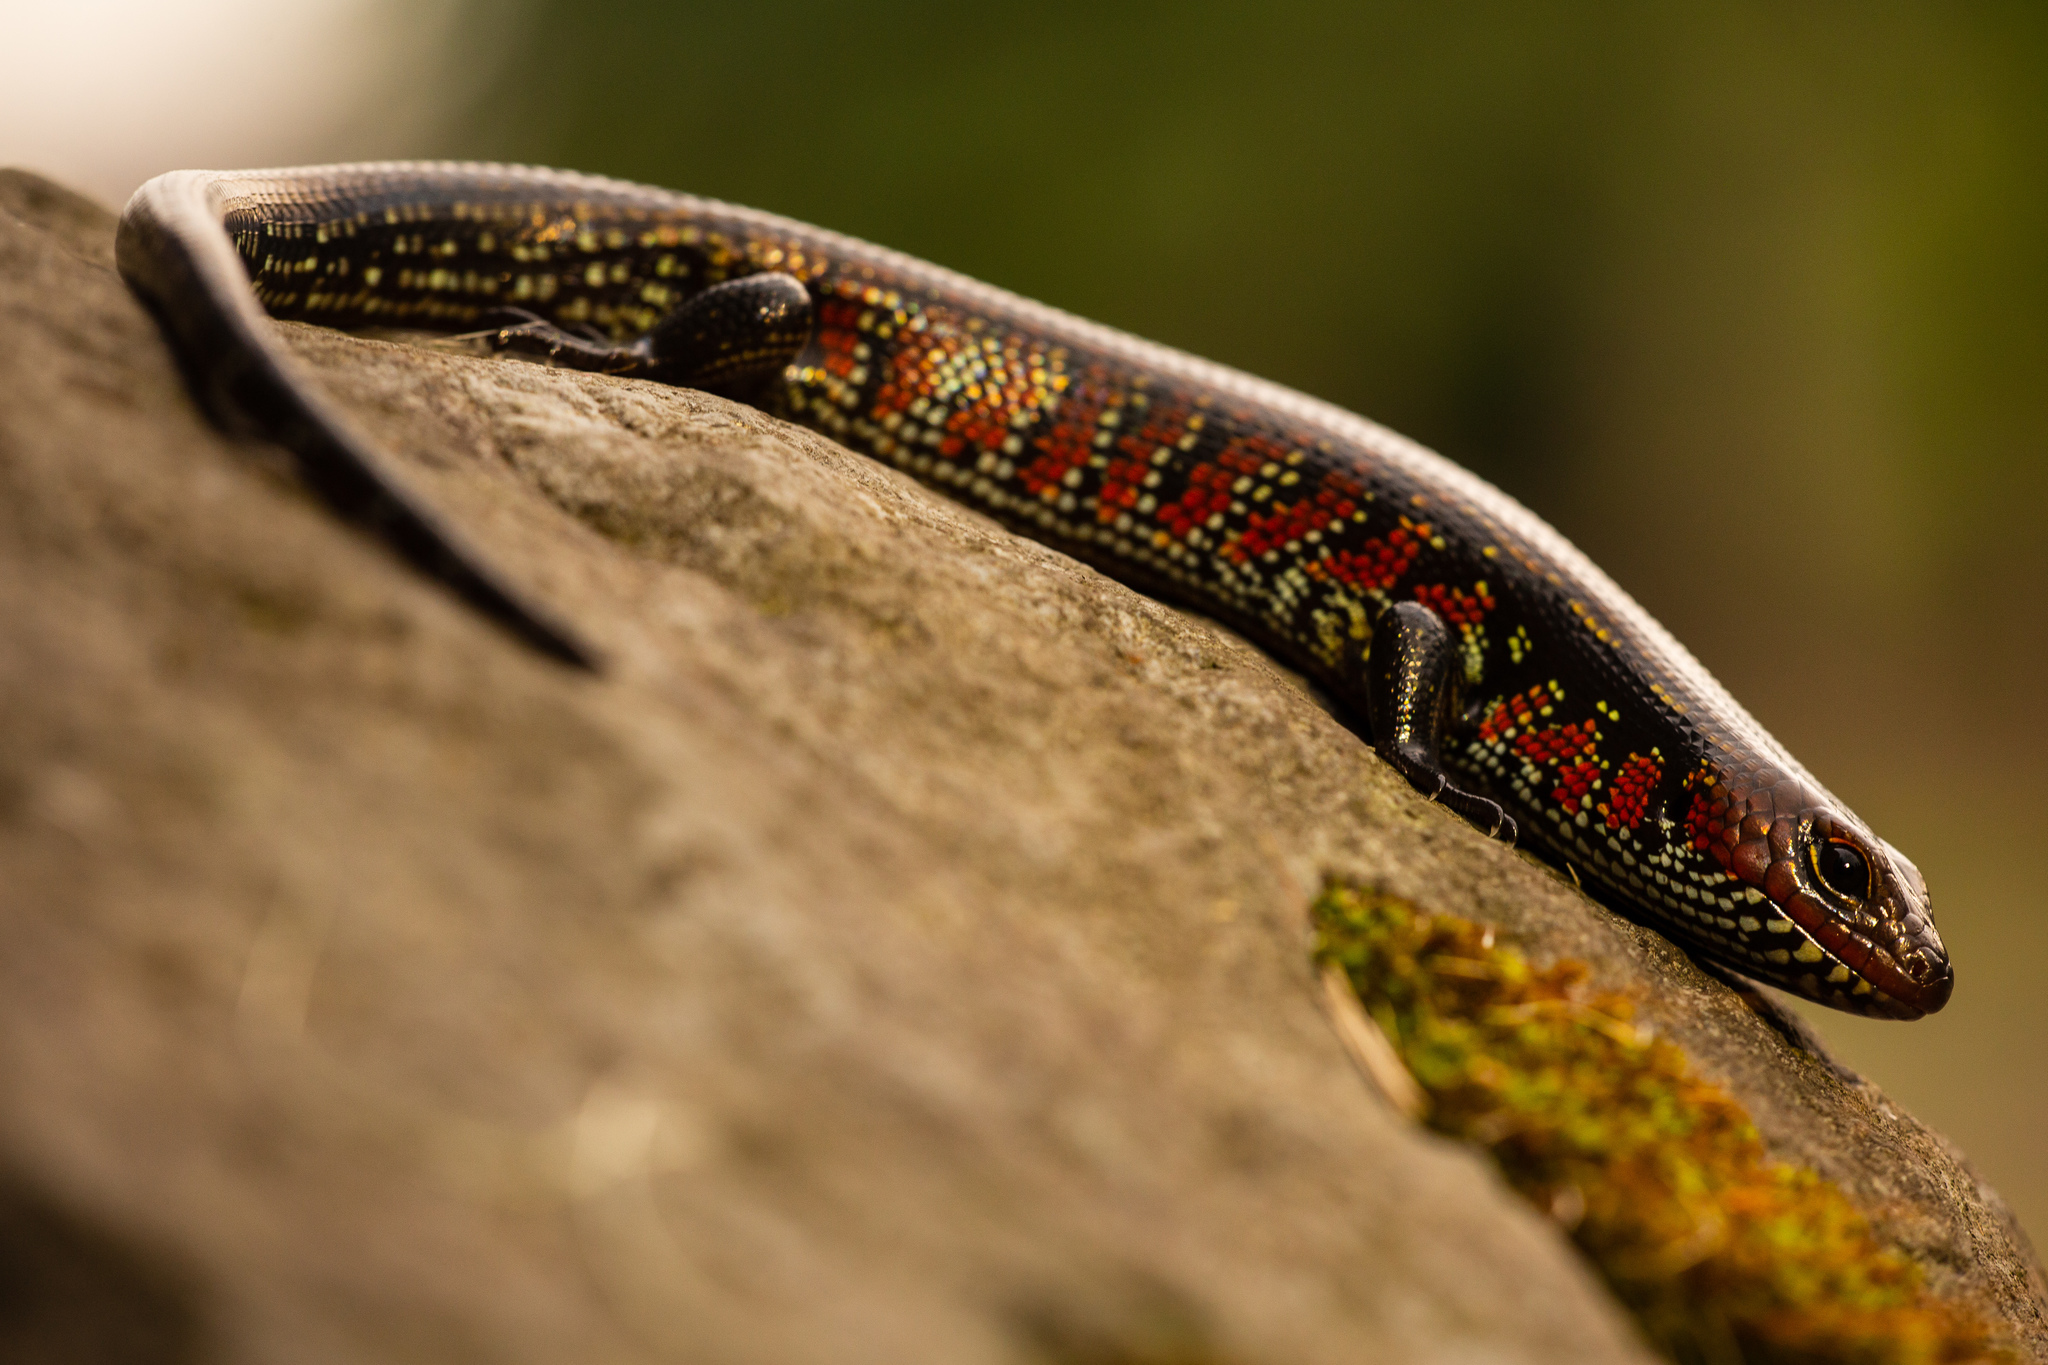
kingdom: Animalia
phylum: Chordata
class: Squamata
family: Scincidae
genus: Mochlus
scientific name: Mochlus fernandi
